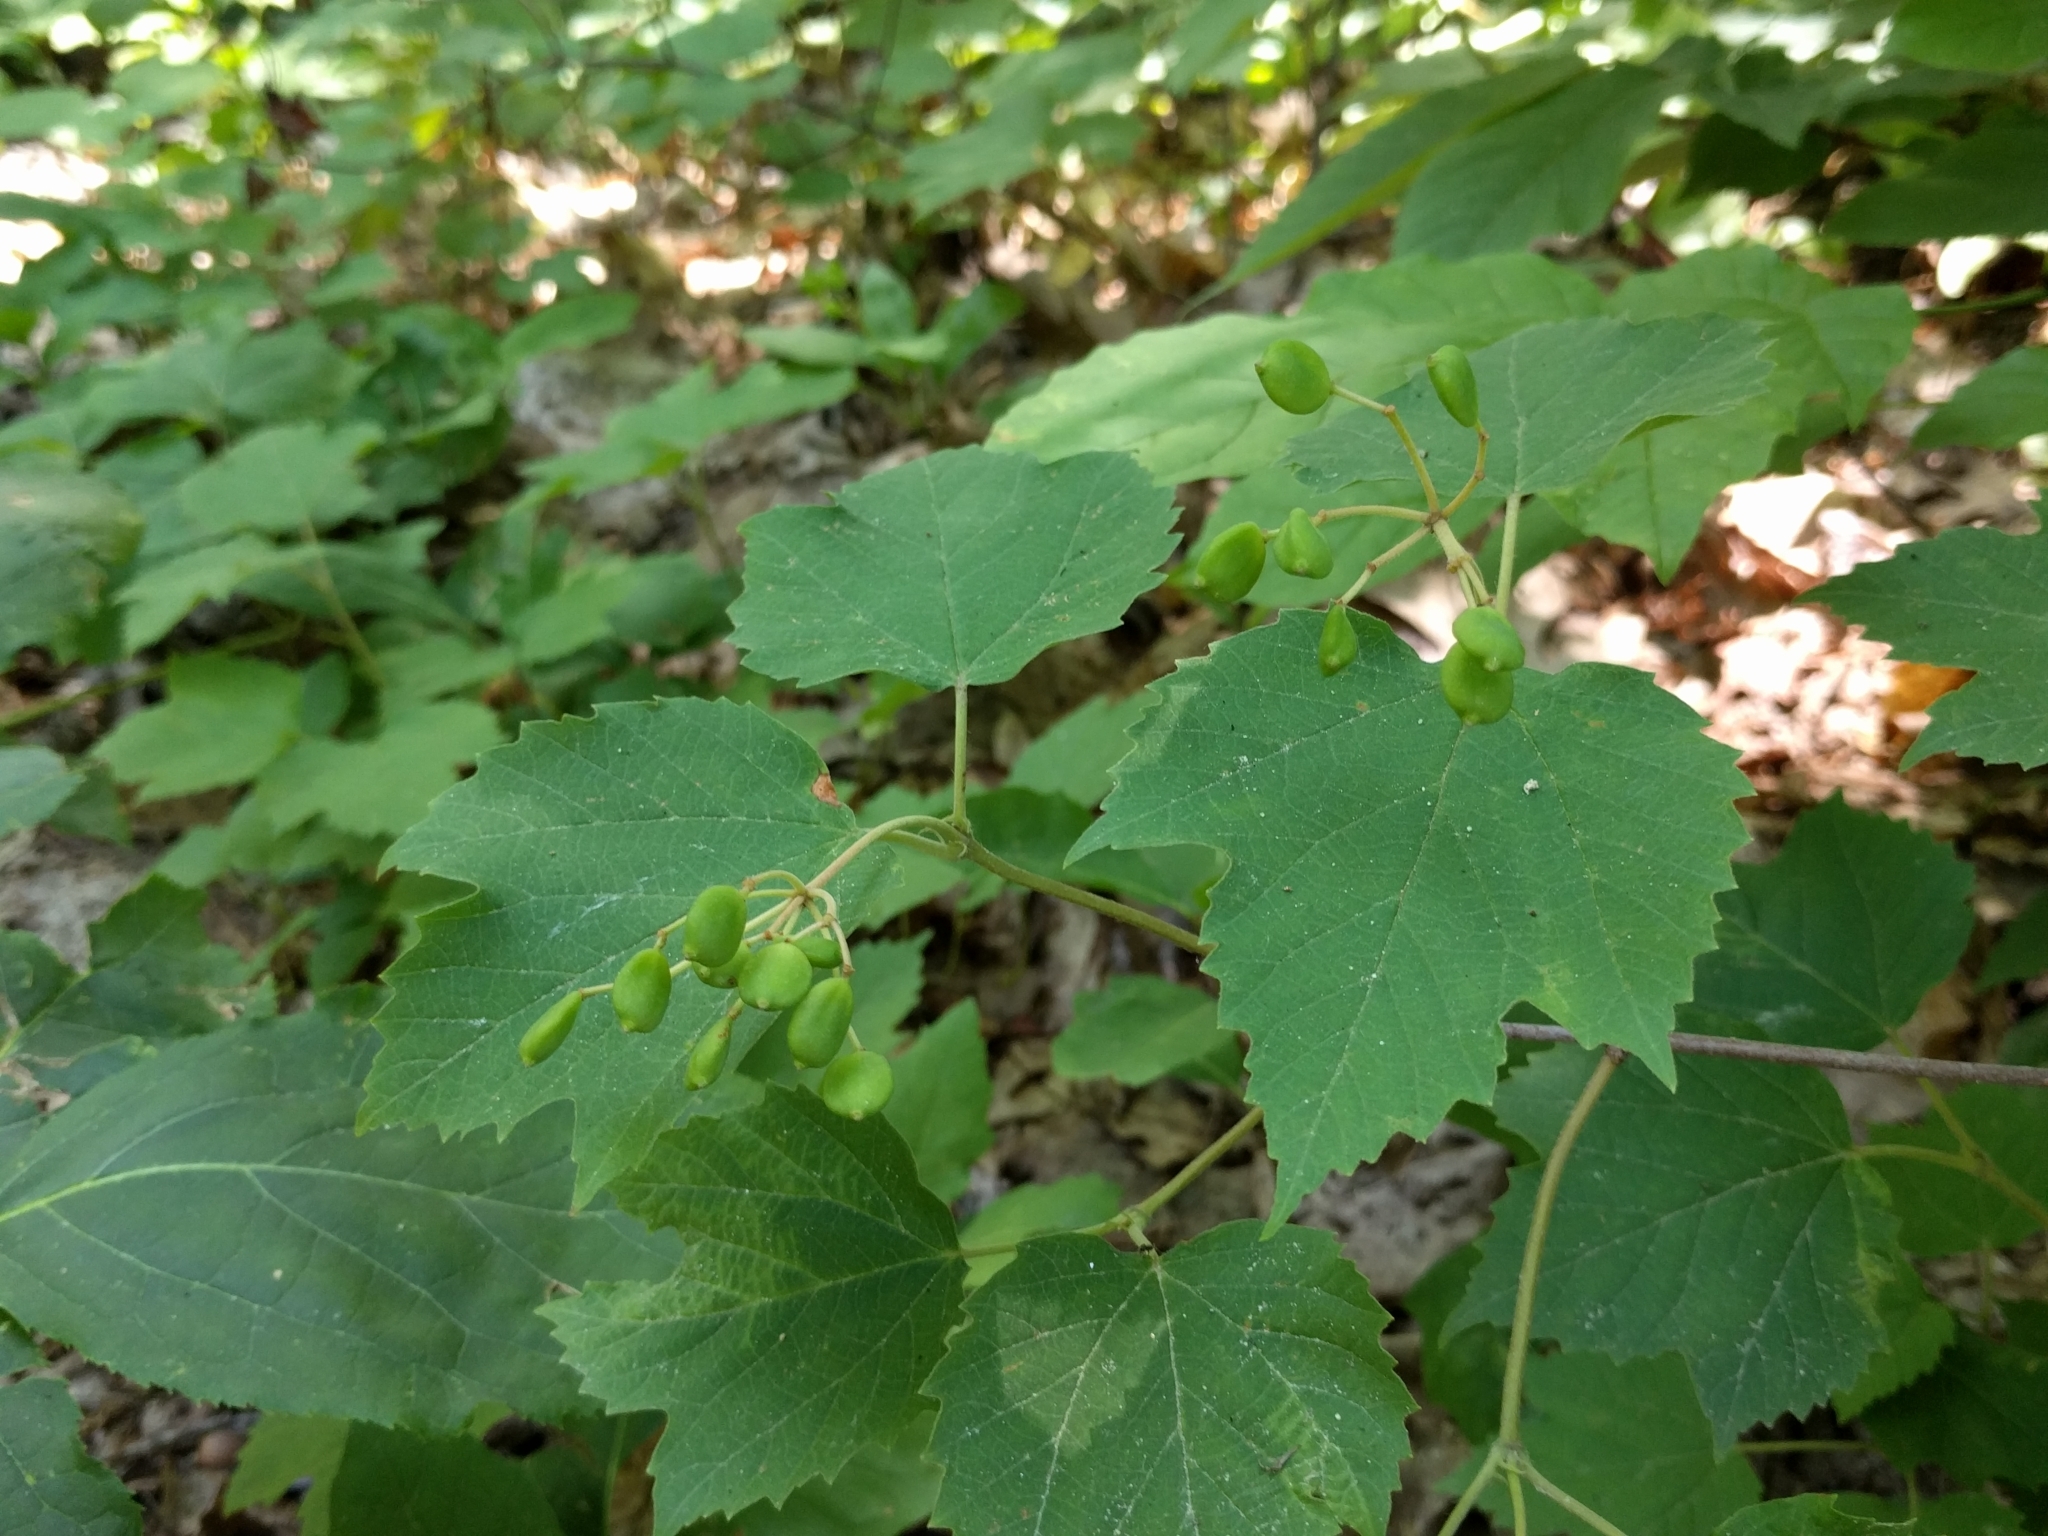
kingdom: Plantae
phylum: Tracheophyta
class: Magnoliopsida
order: Dipsacales
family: Viburnaceae
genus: Viburnum
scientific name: Viburnum acerifolium
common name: Dockmackie
